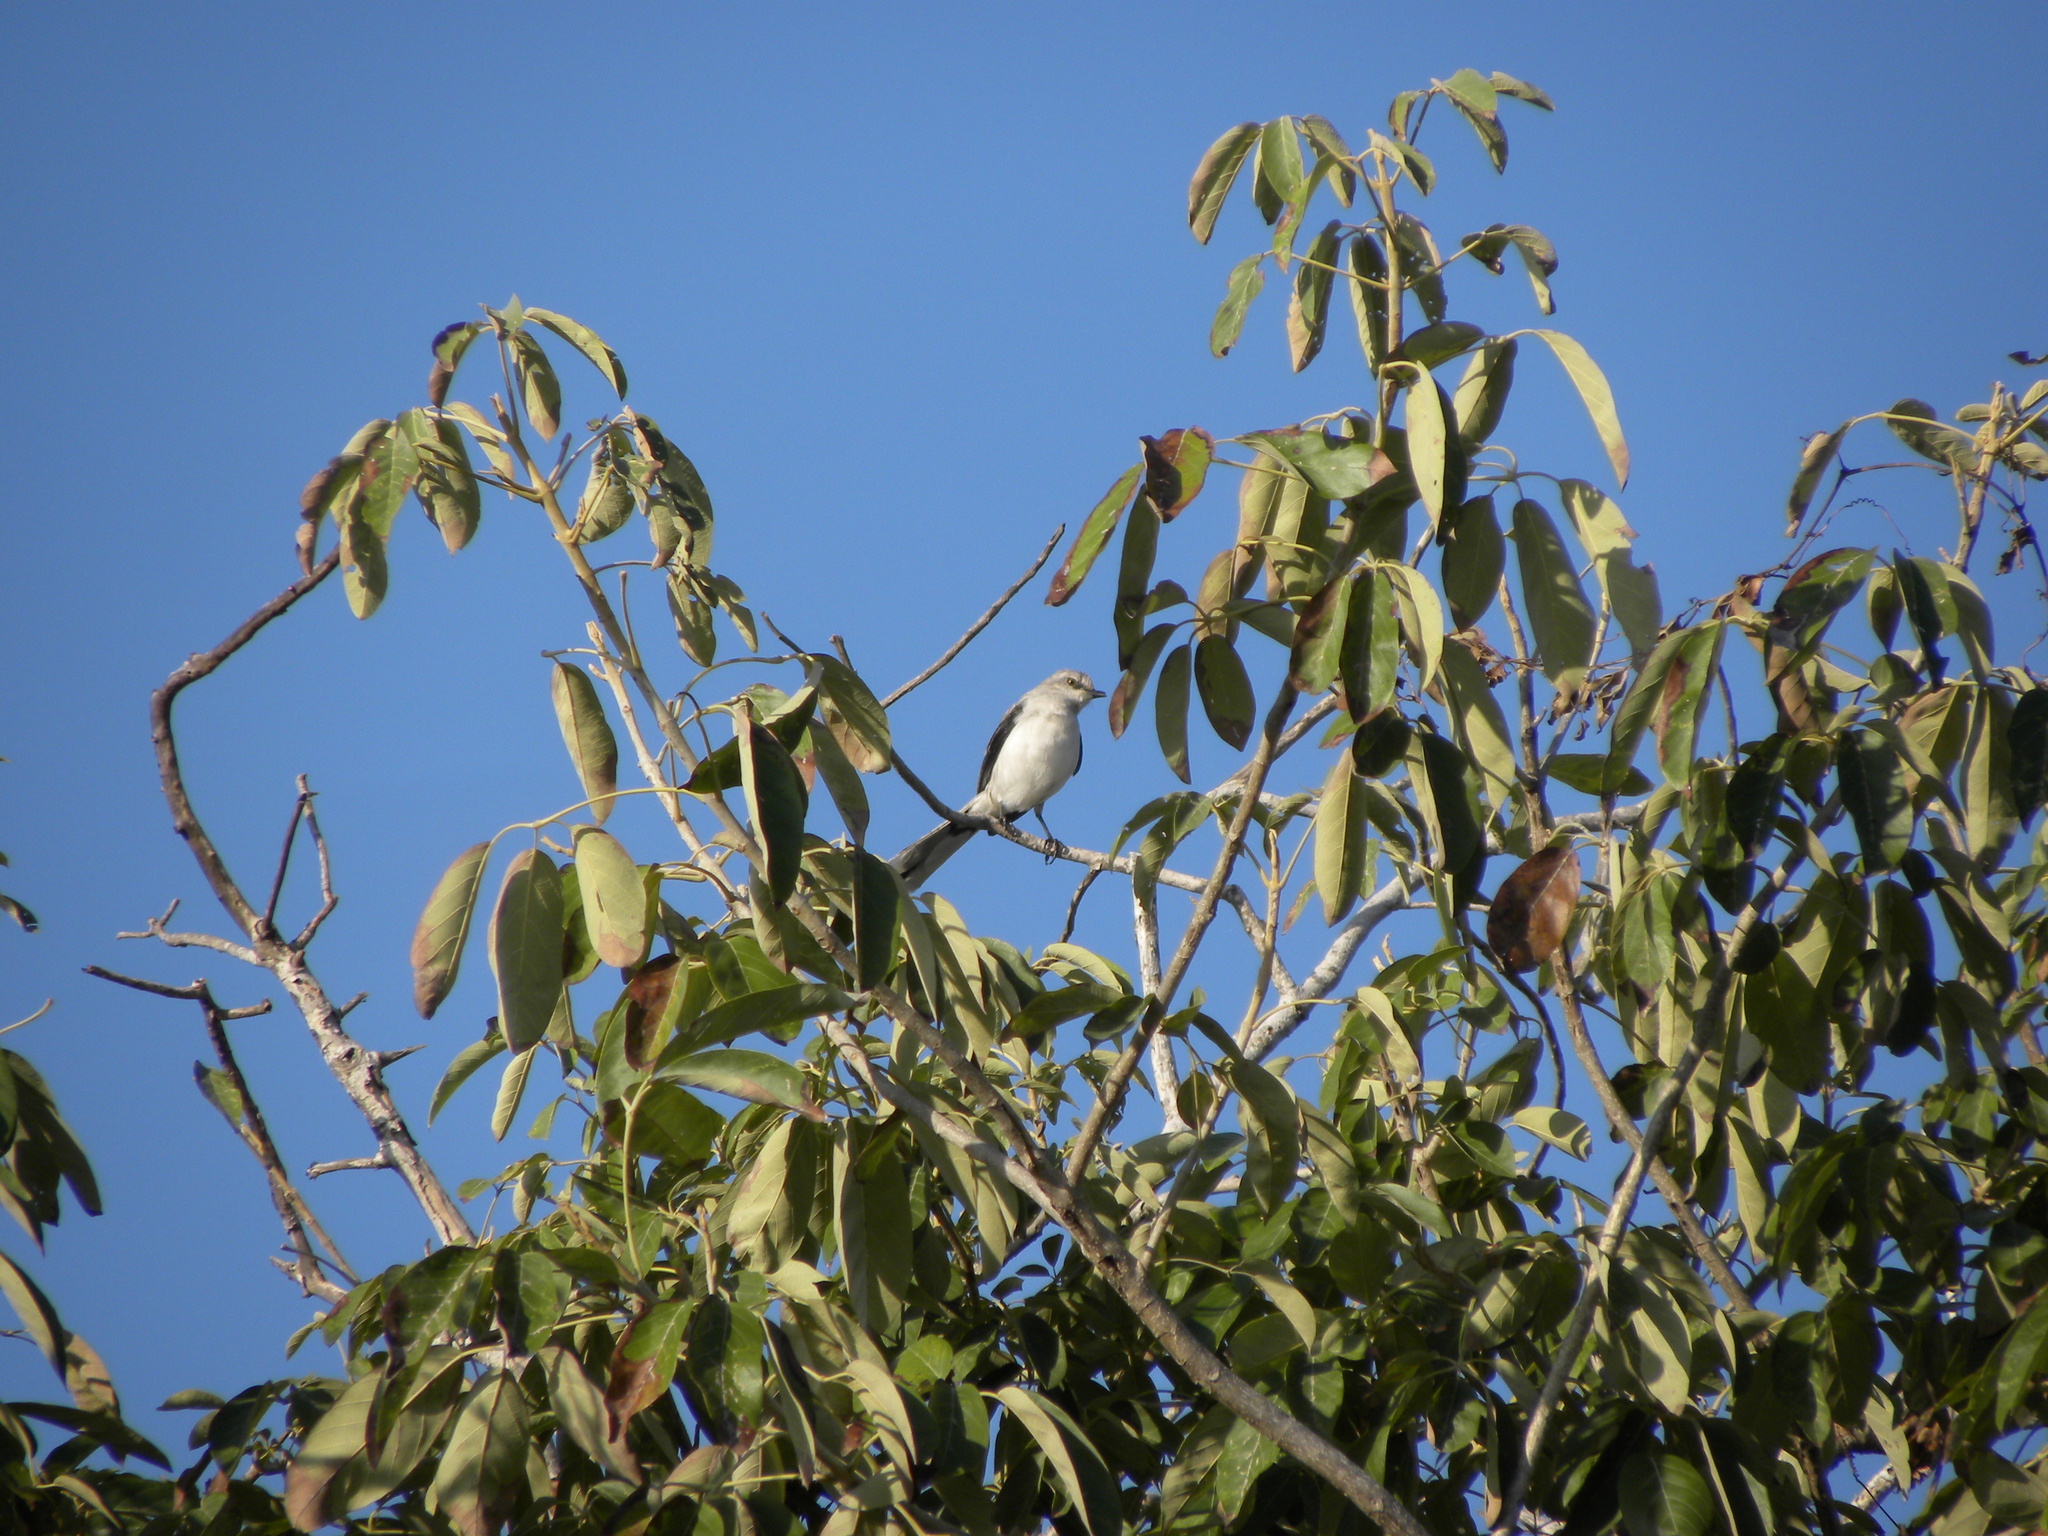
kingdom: Animalia
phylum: Chordata
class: Aves
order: Passeriformes
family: Mimidae
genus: Mimus
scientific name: Mimus gilvus
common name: Tropical mockingbird
